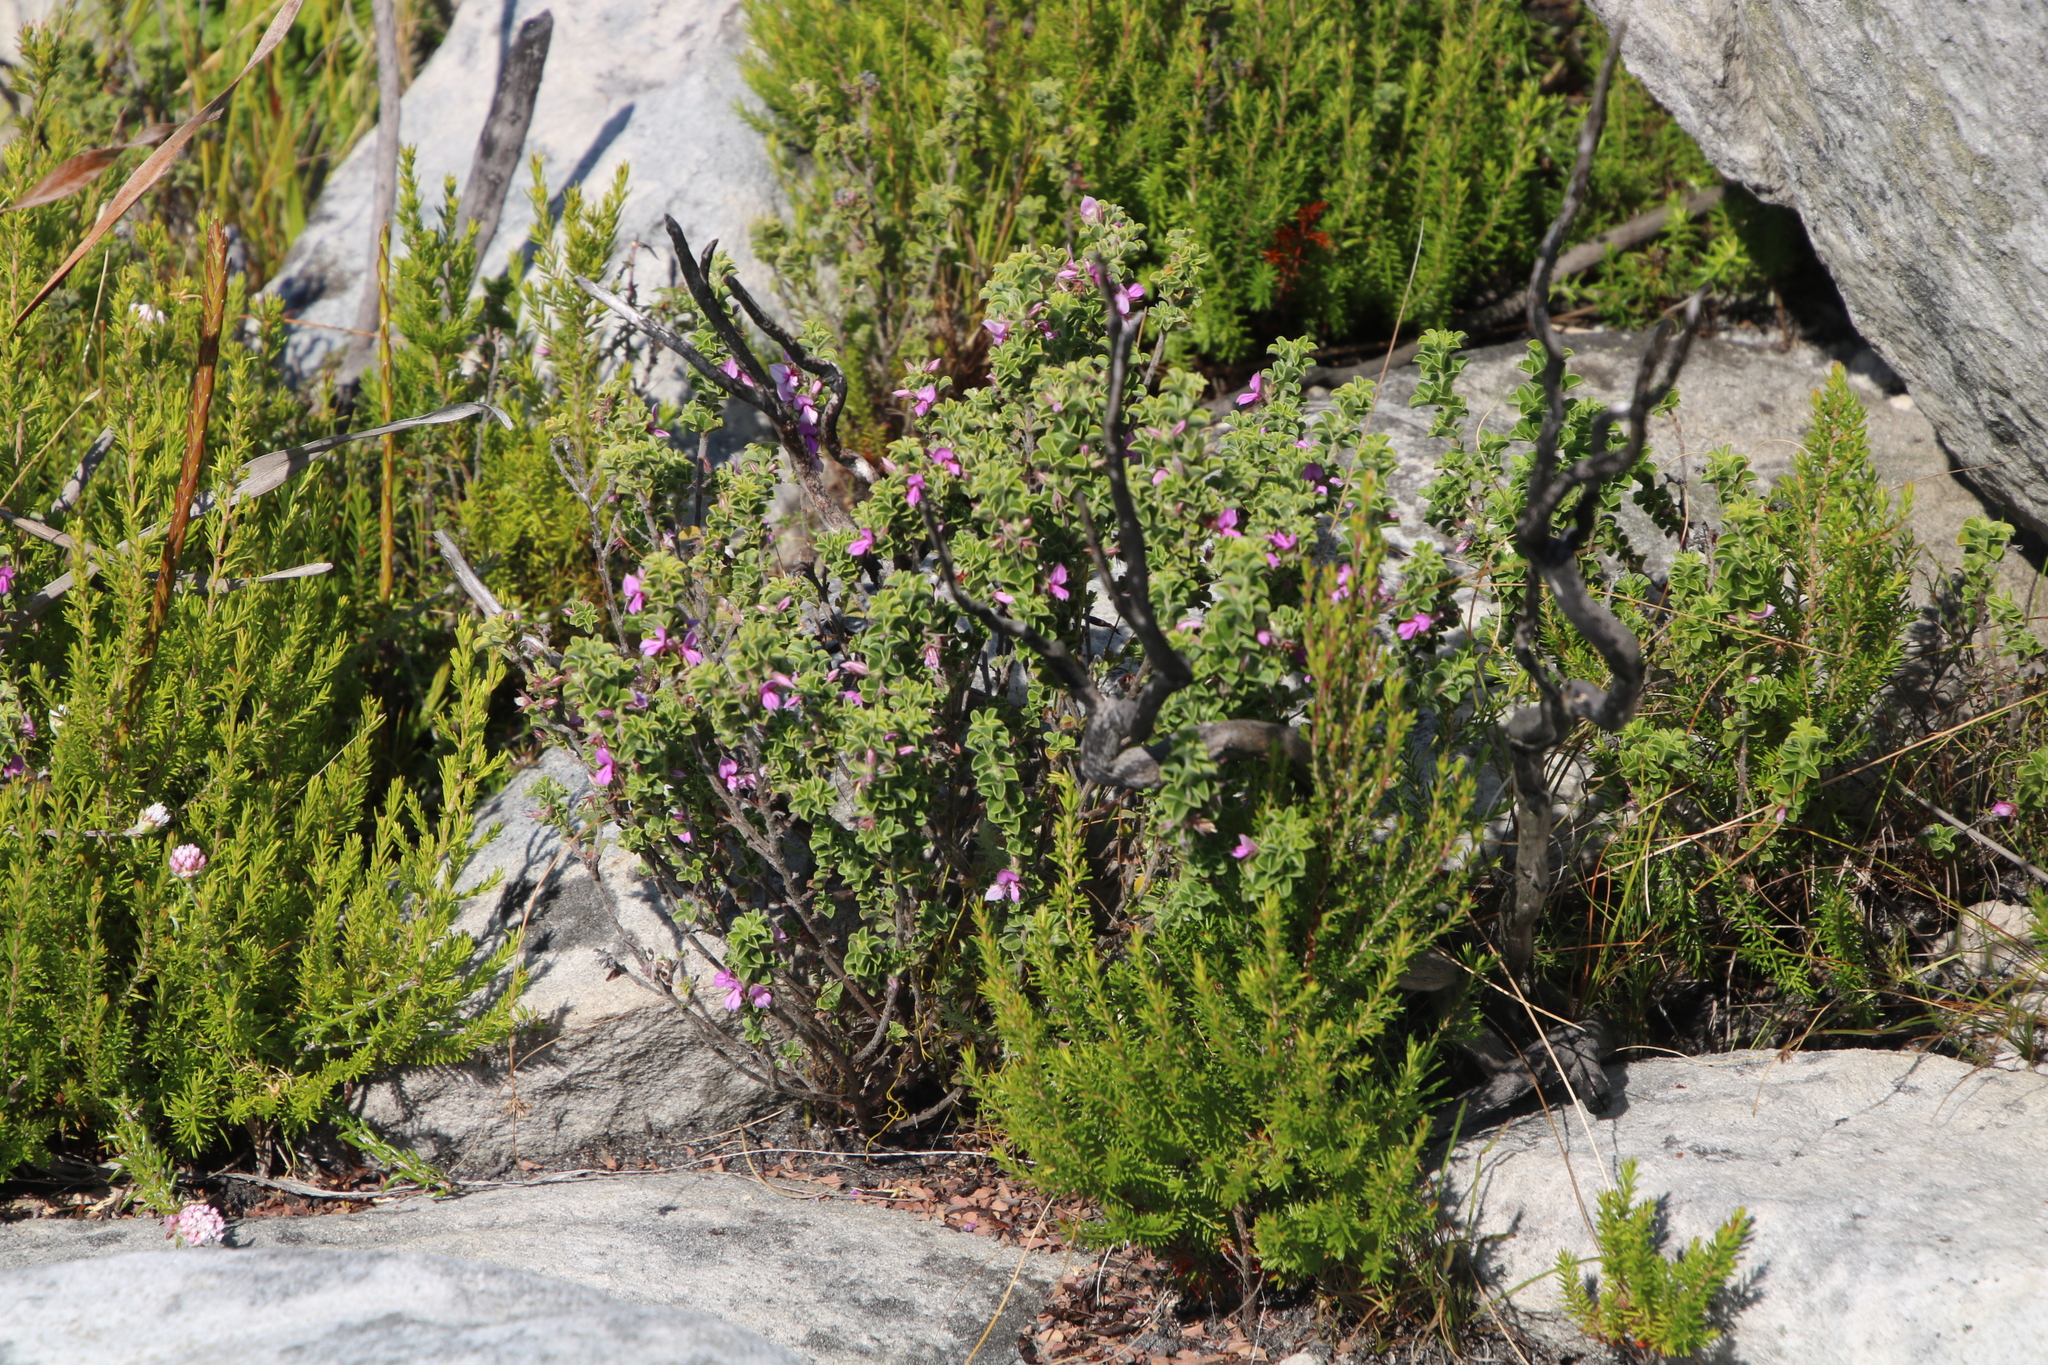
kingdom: Plantae
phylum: Tracheophyta
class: Magnoliopsida
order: Fabales
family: Fabaceae
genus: Indigofera
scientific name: Indigofera candolleana
